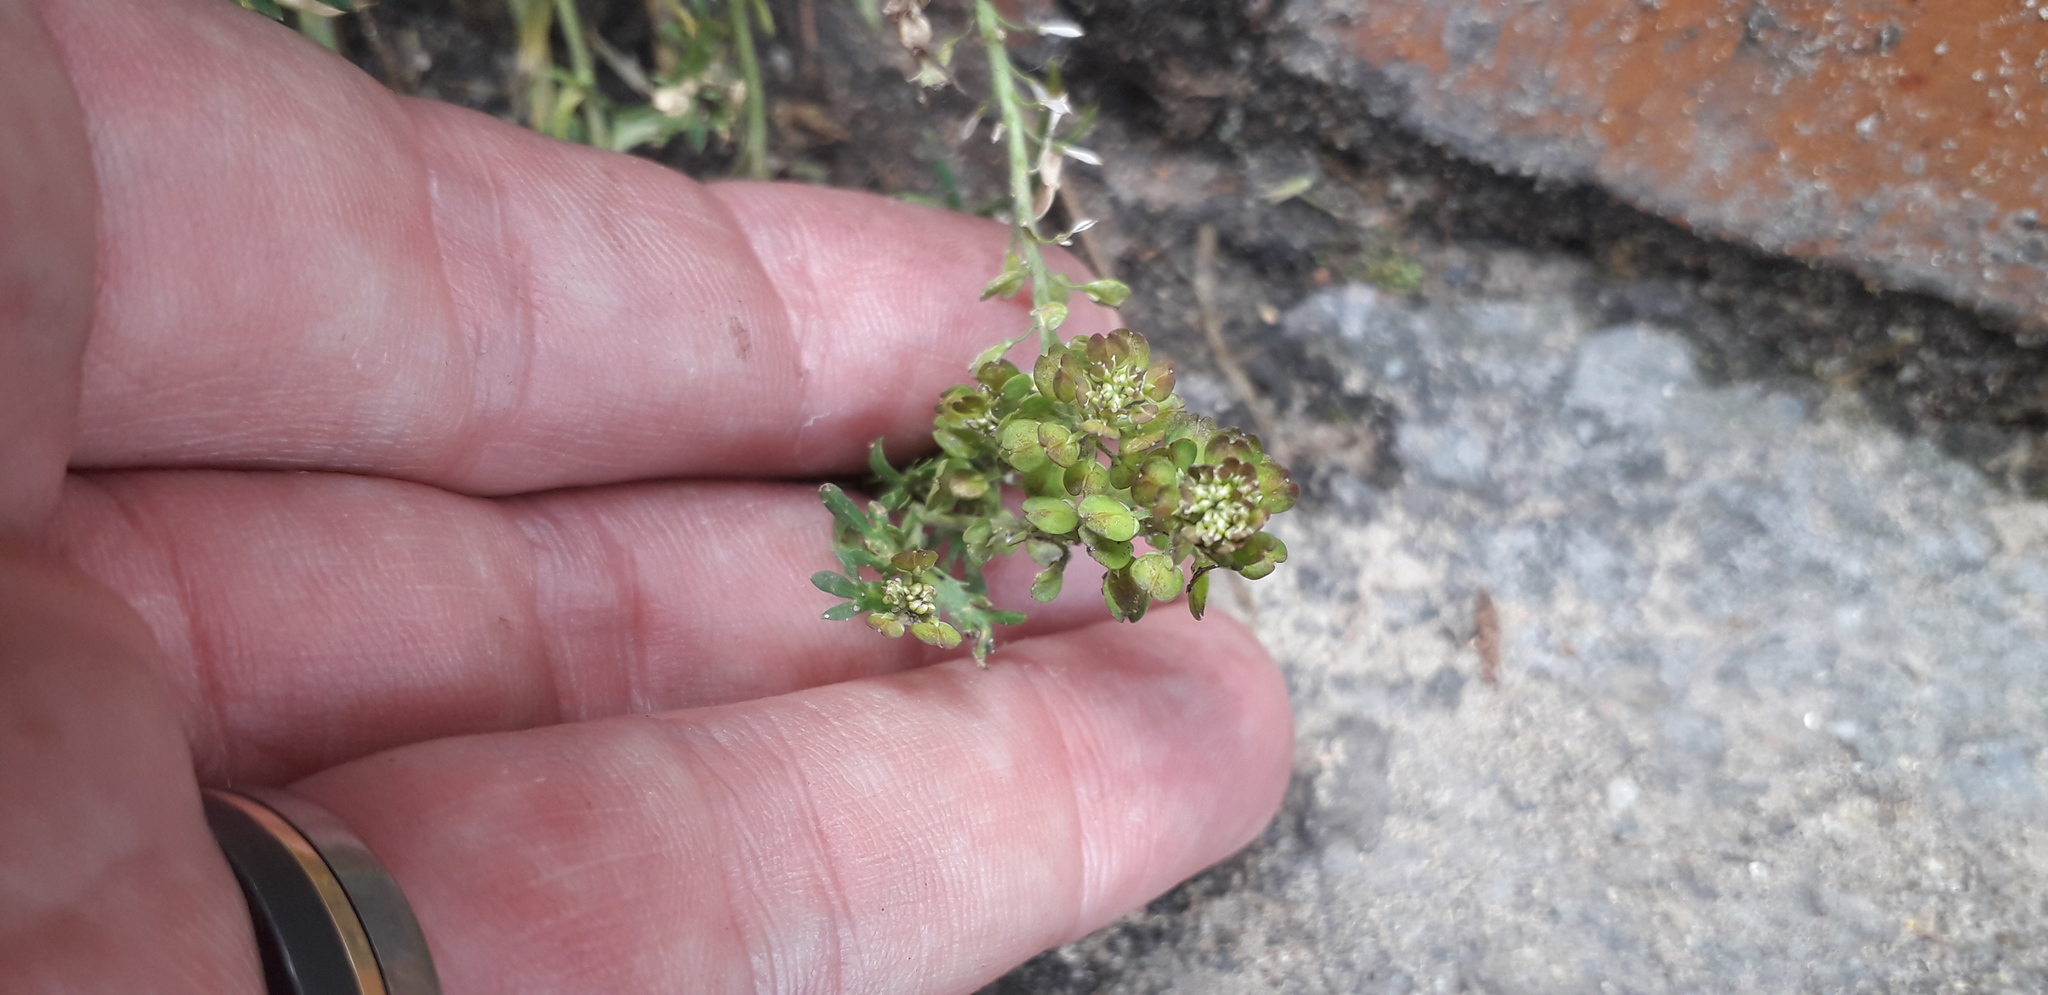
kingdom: Plantae
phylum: Tracheophyta
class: Magnoliopsida
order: Brassicales
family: Brassicaceae
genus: Lepidium
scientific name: Lepidium bipinnatifidum
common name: Wayside pepperwort
